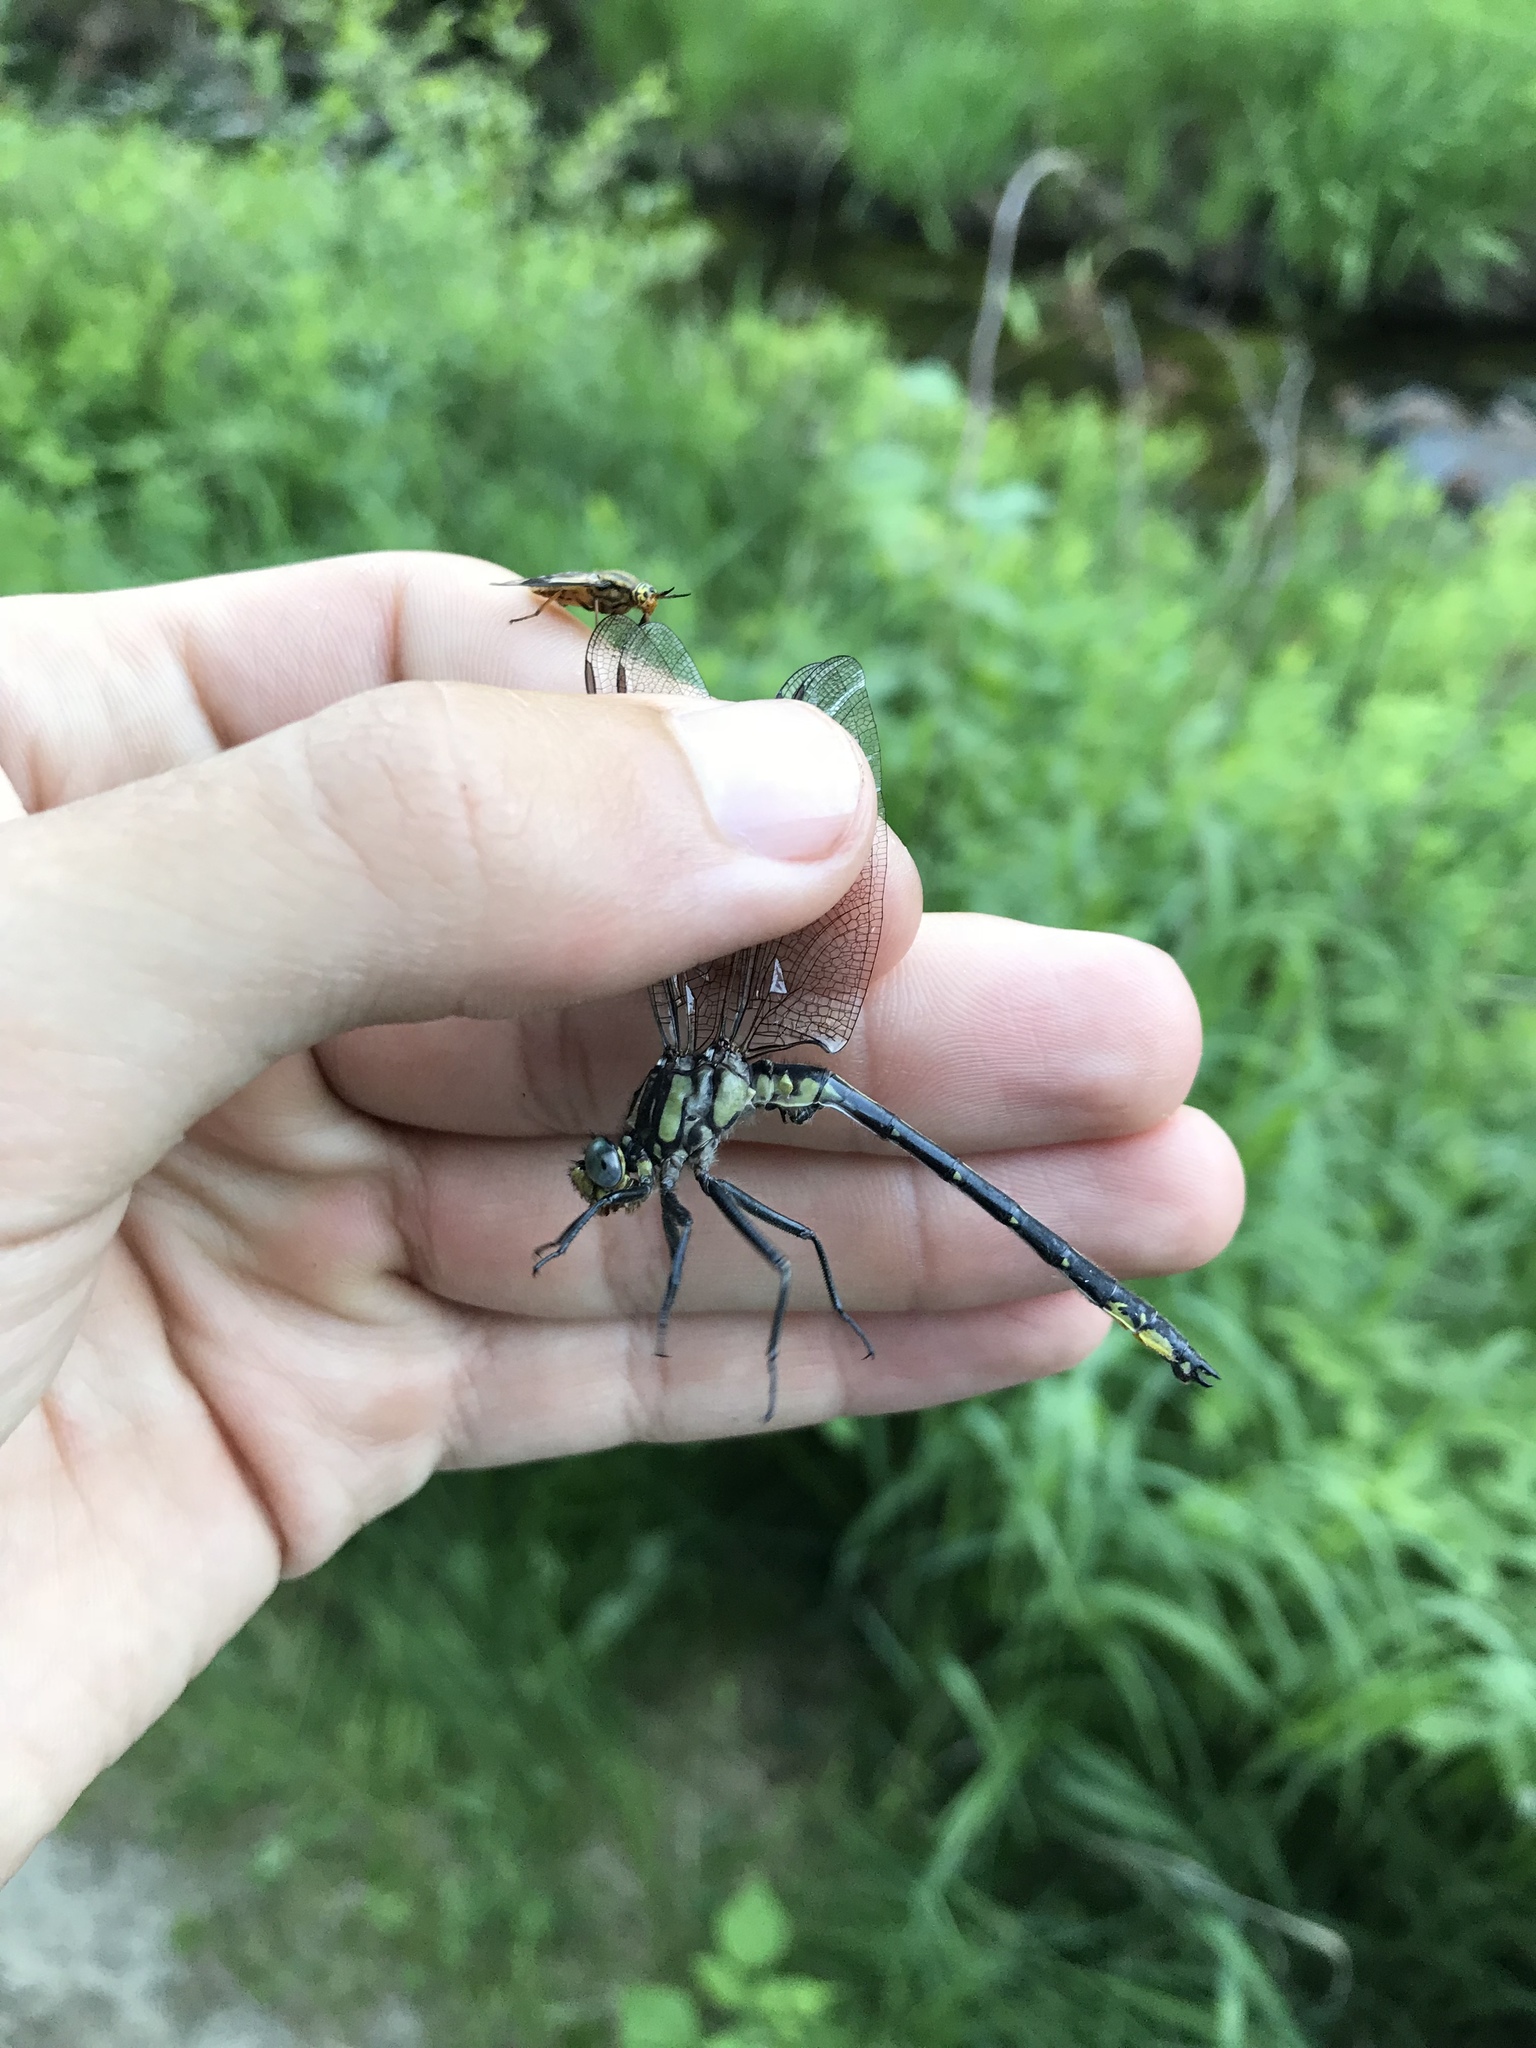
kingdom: Animalia
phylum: Arthropoda
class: Insecta
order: Odonata
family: Gomphidae
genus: Phanogomphus
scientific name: Phanogomphus descriptus
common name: Harpoon clubtail
